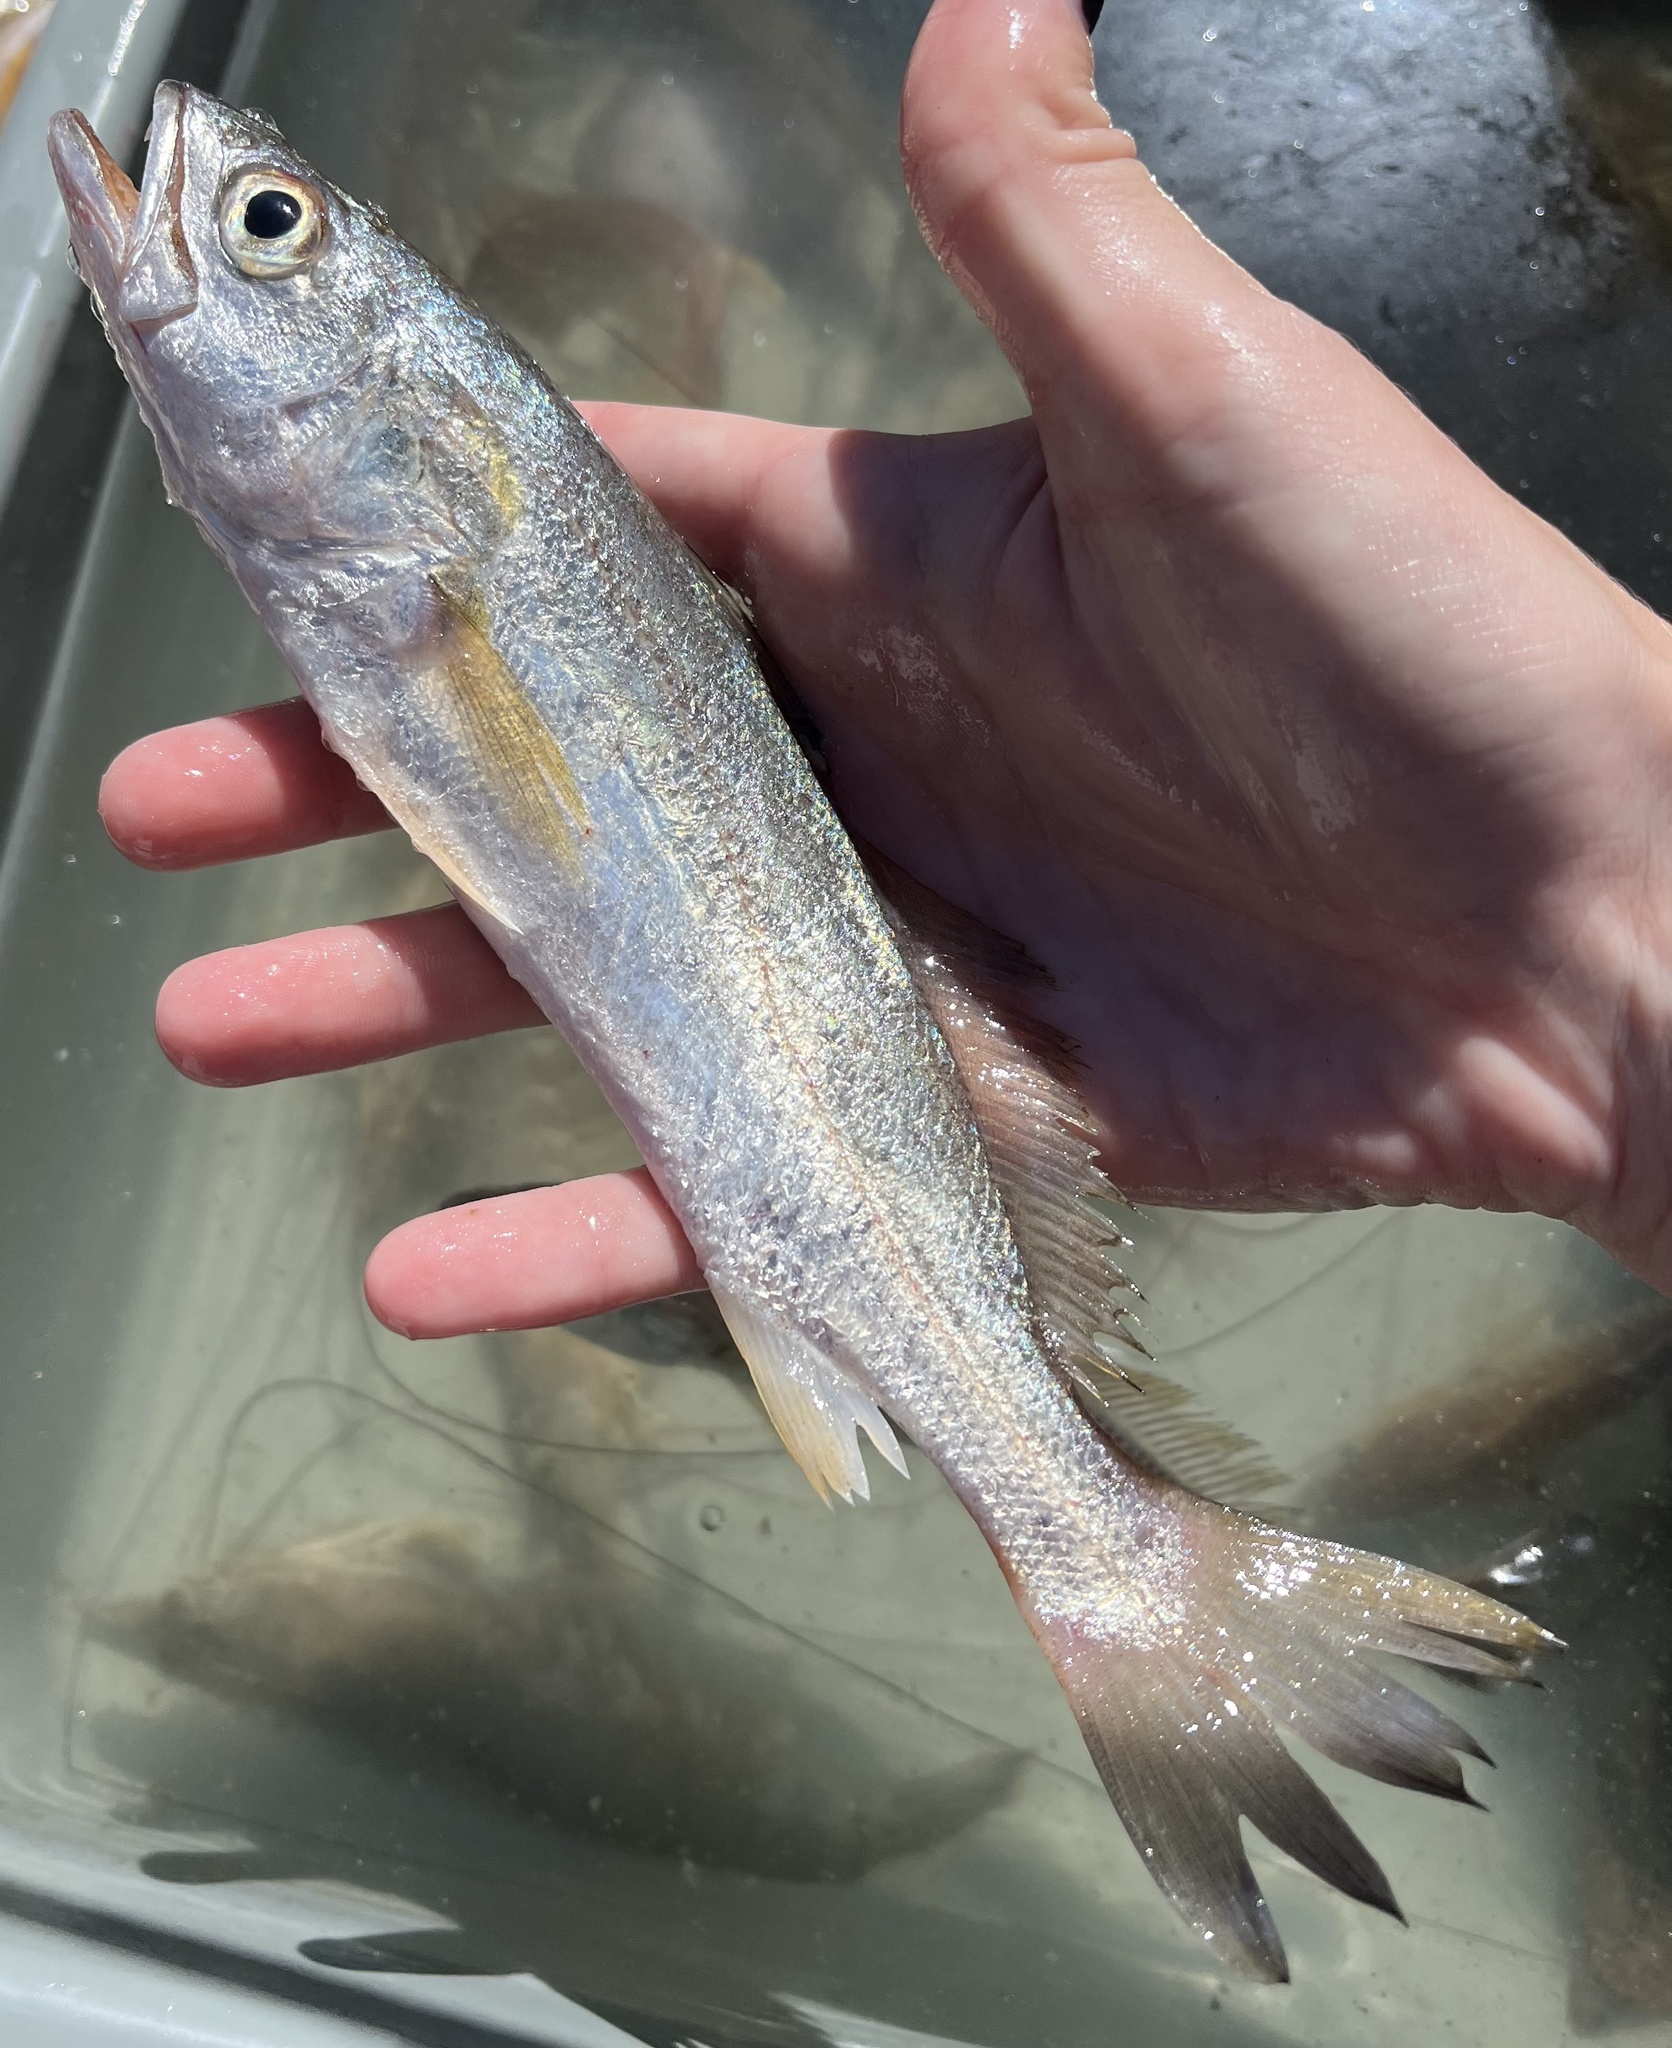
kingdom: Animalia
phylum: Chordata
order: Perciformes
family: Sciaenidae
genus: Cynoscion
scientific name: Cynoscion arenarius
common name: Sand seatrout
